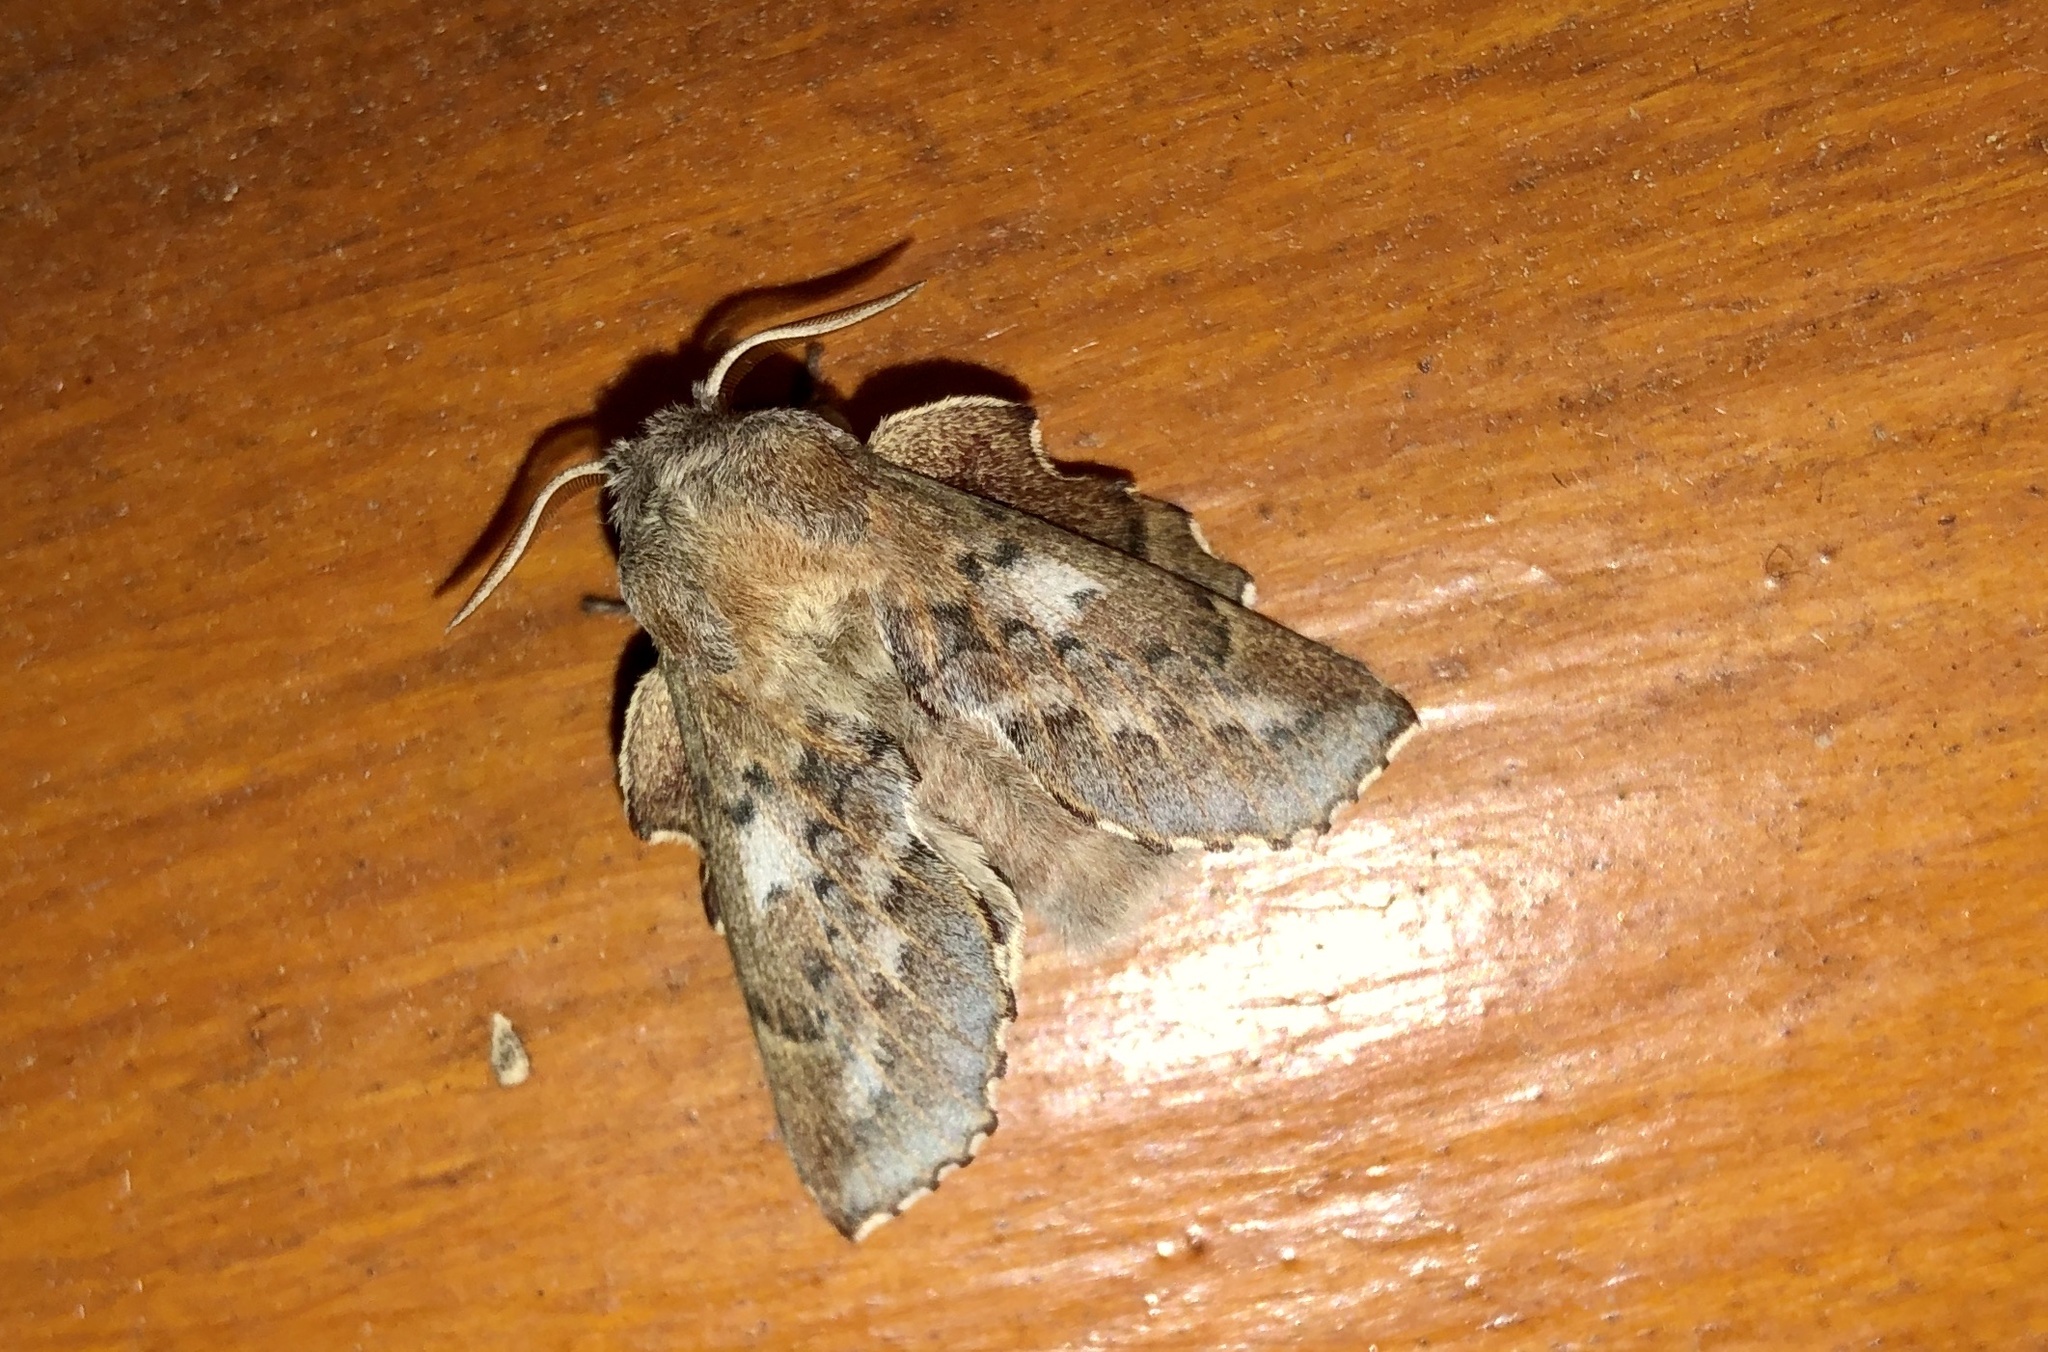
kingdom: Animalia
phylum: Arthropoda
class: Insecta
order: Lepidoptera
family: Lasiocampidae
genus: Phyllodesma
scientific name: Phyllodesma americana
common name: American lappet moth
